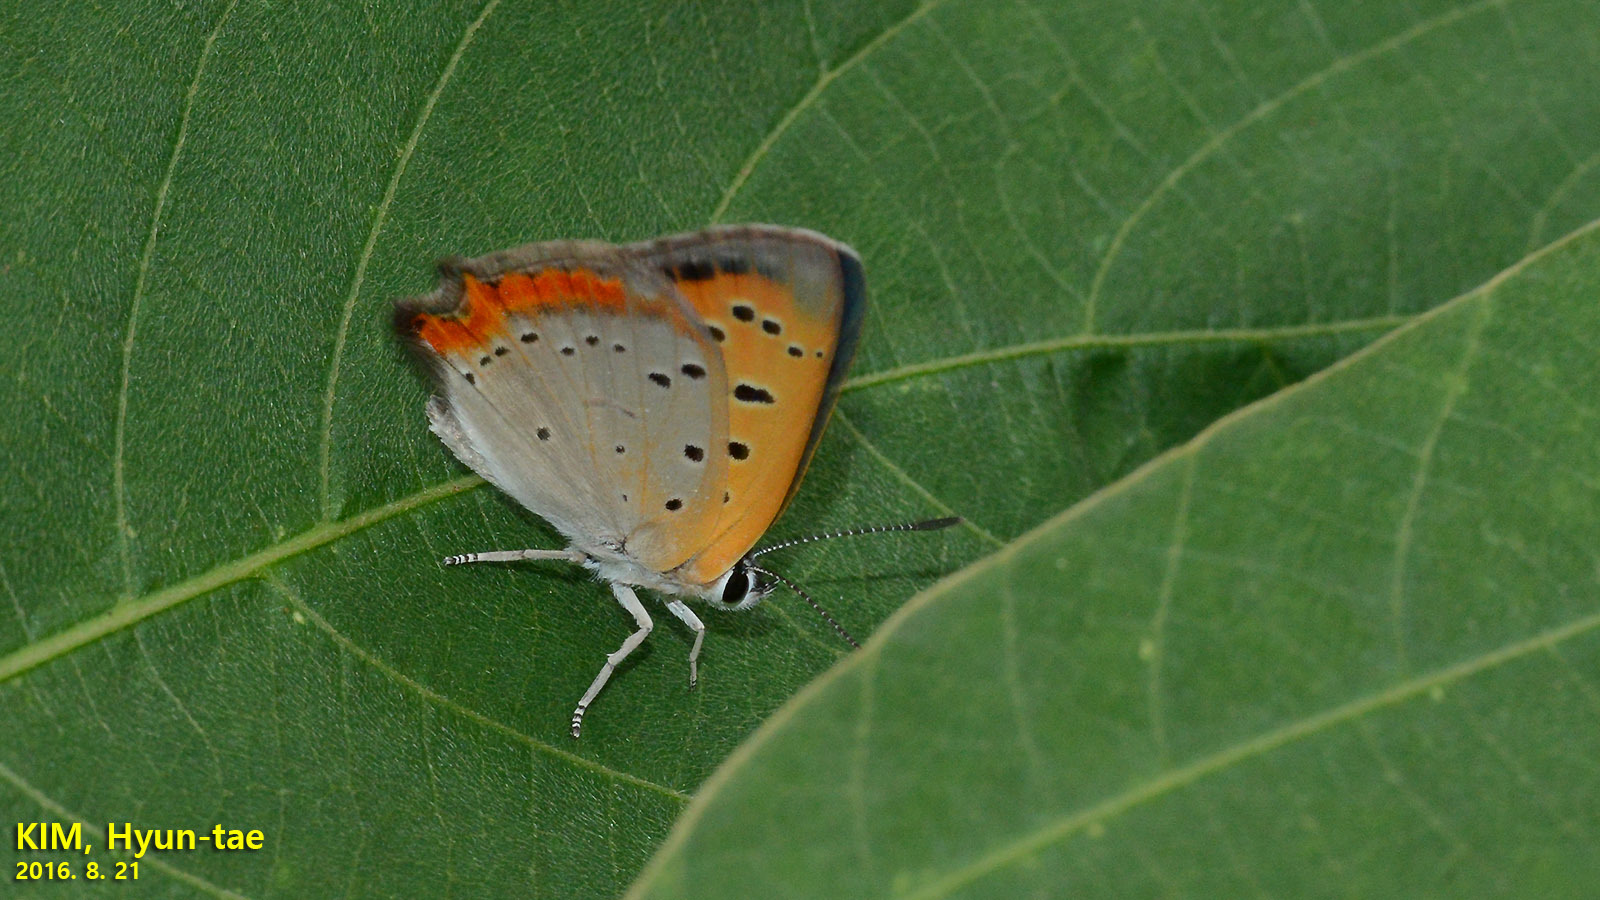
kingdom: Animalia
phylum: Arthropoda
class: Insecta
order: Lepidoptera
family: Lycaenidae
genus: Lycaena
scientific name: Lycaena phlaeas
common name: Small copper
